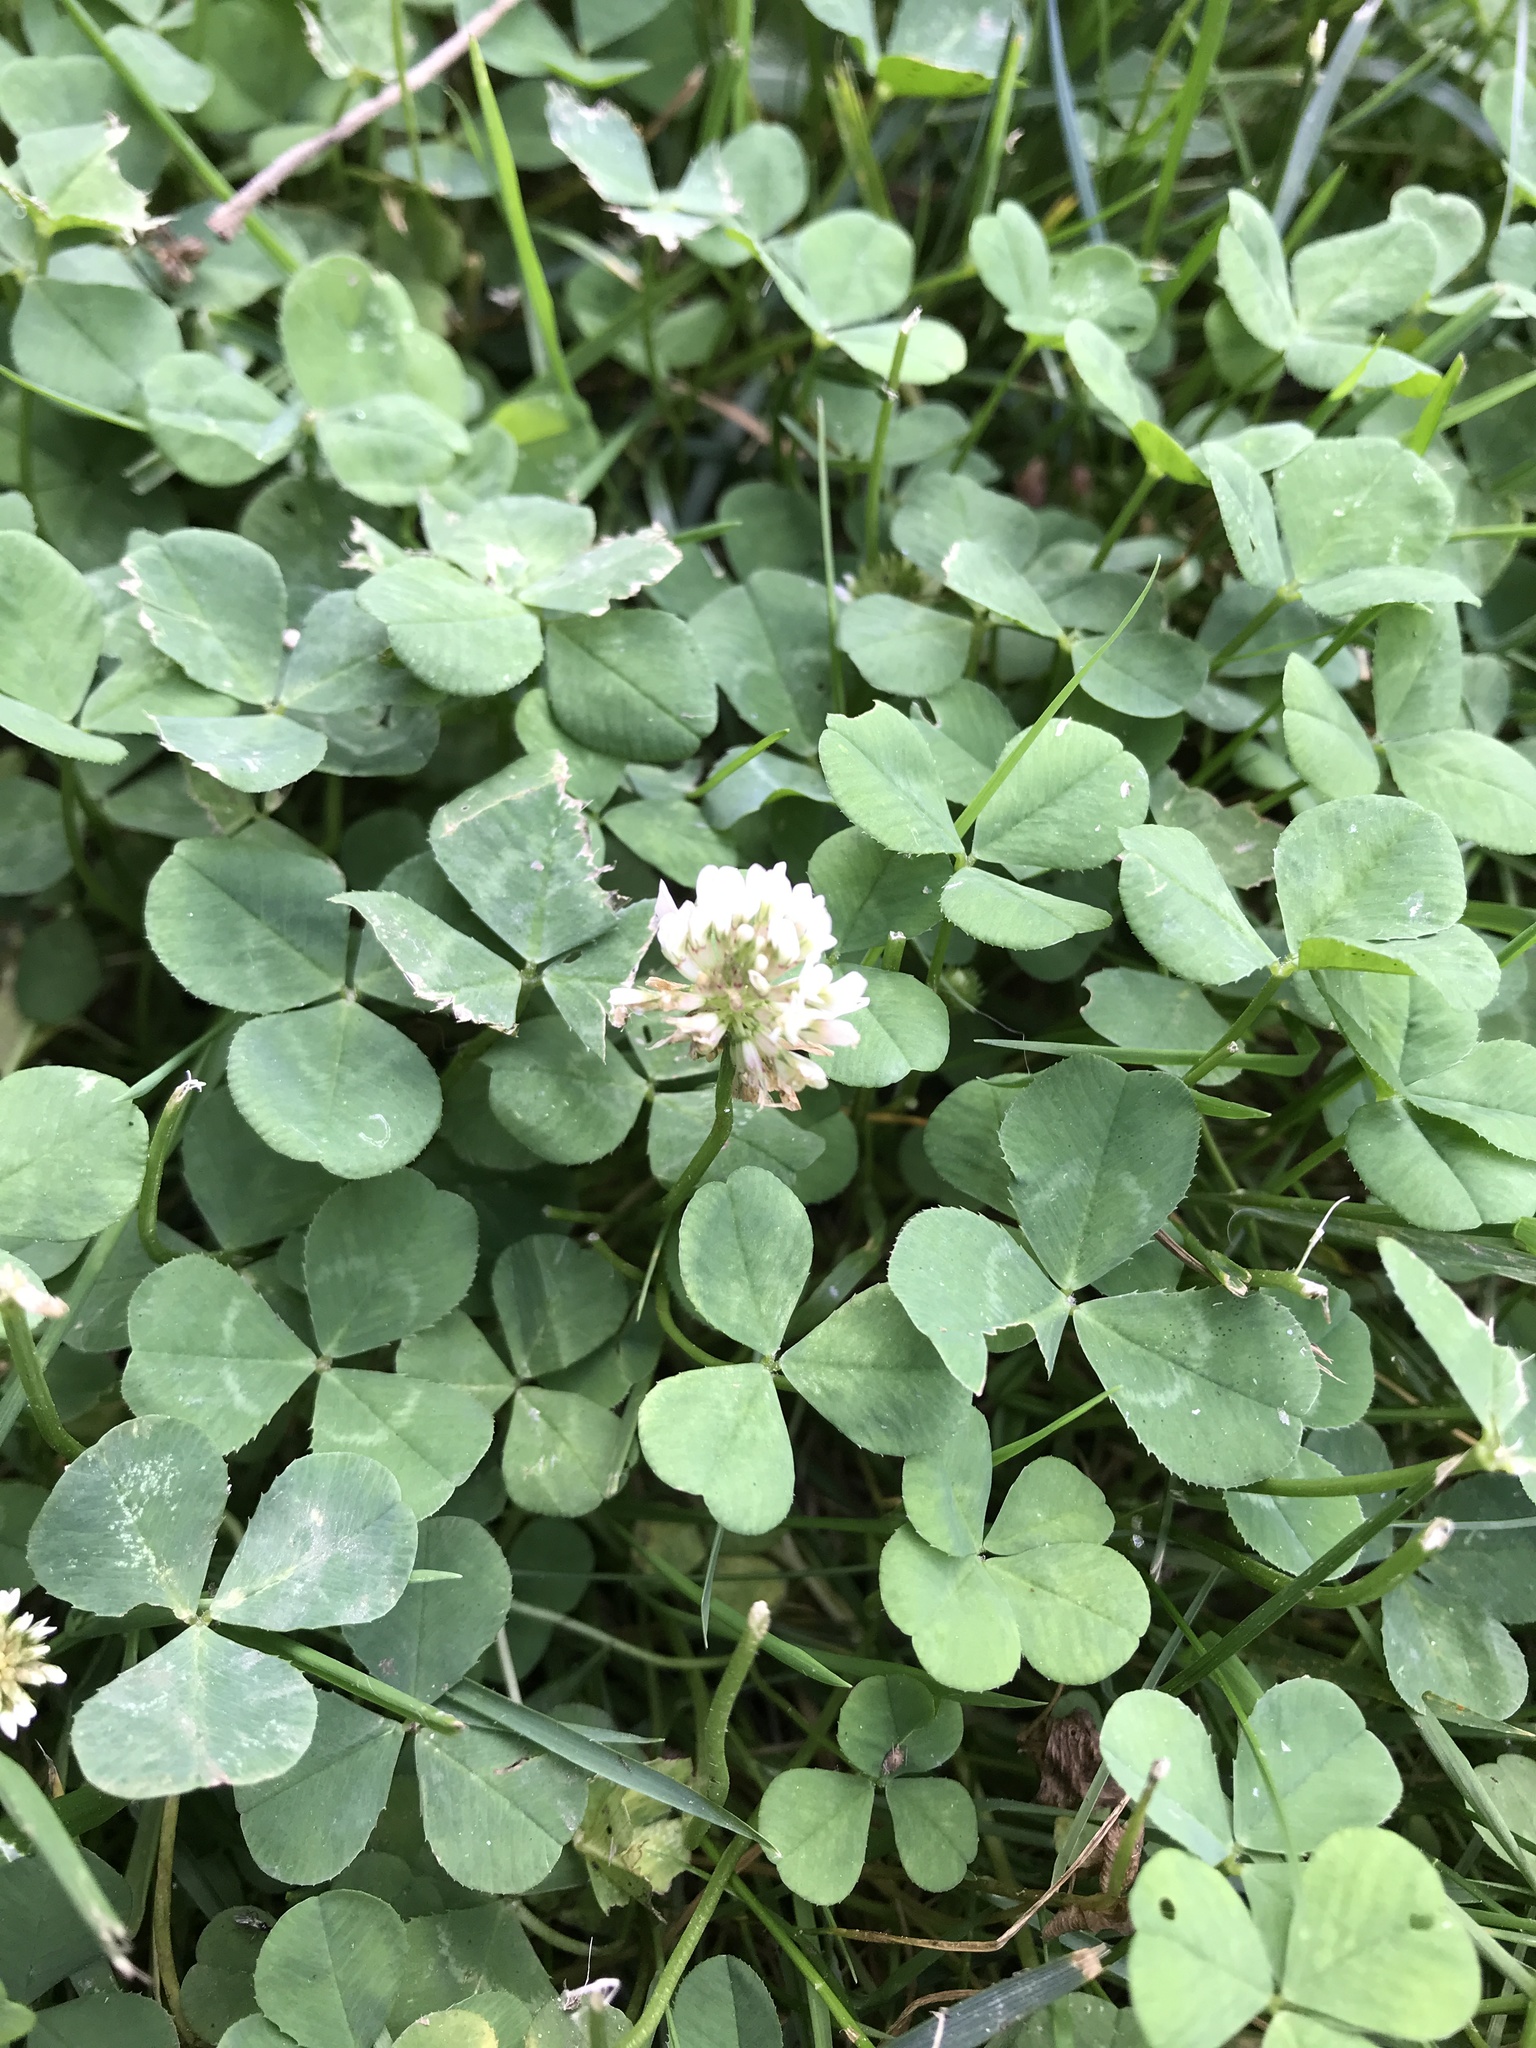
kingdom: Plantae
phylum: Tracheophyta
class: Magnoliopsida
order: Fabales
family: Fabaceae
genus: Trifolium
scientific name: Trifolium repens
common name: White clover
